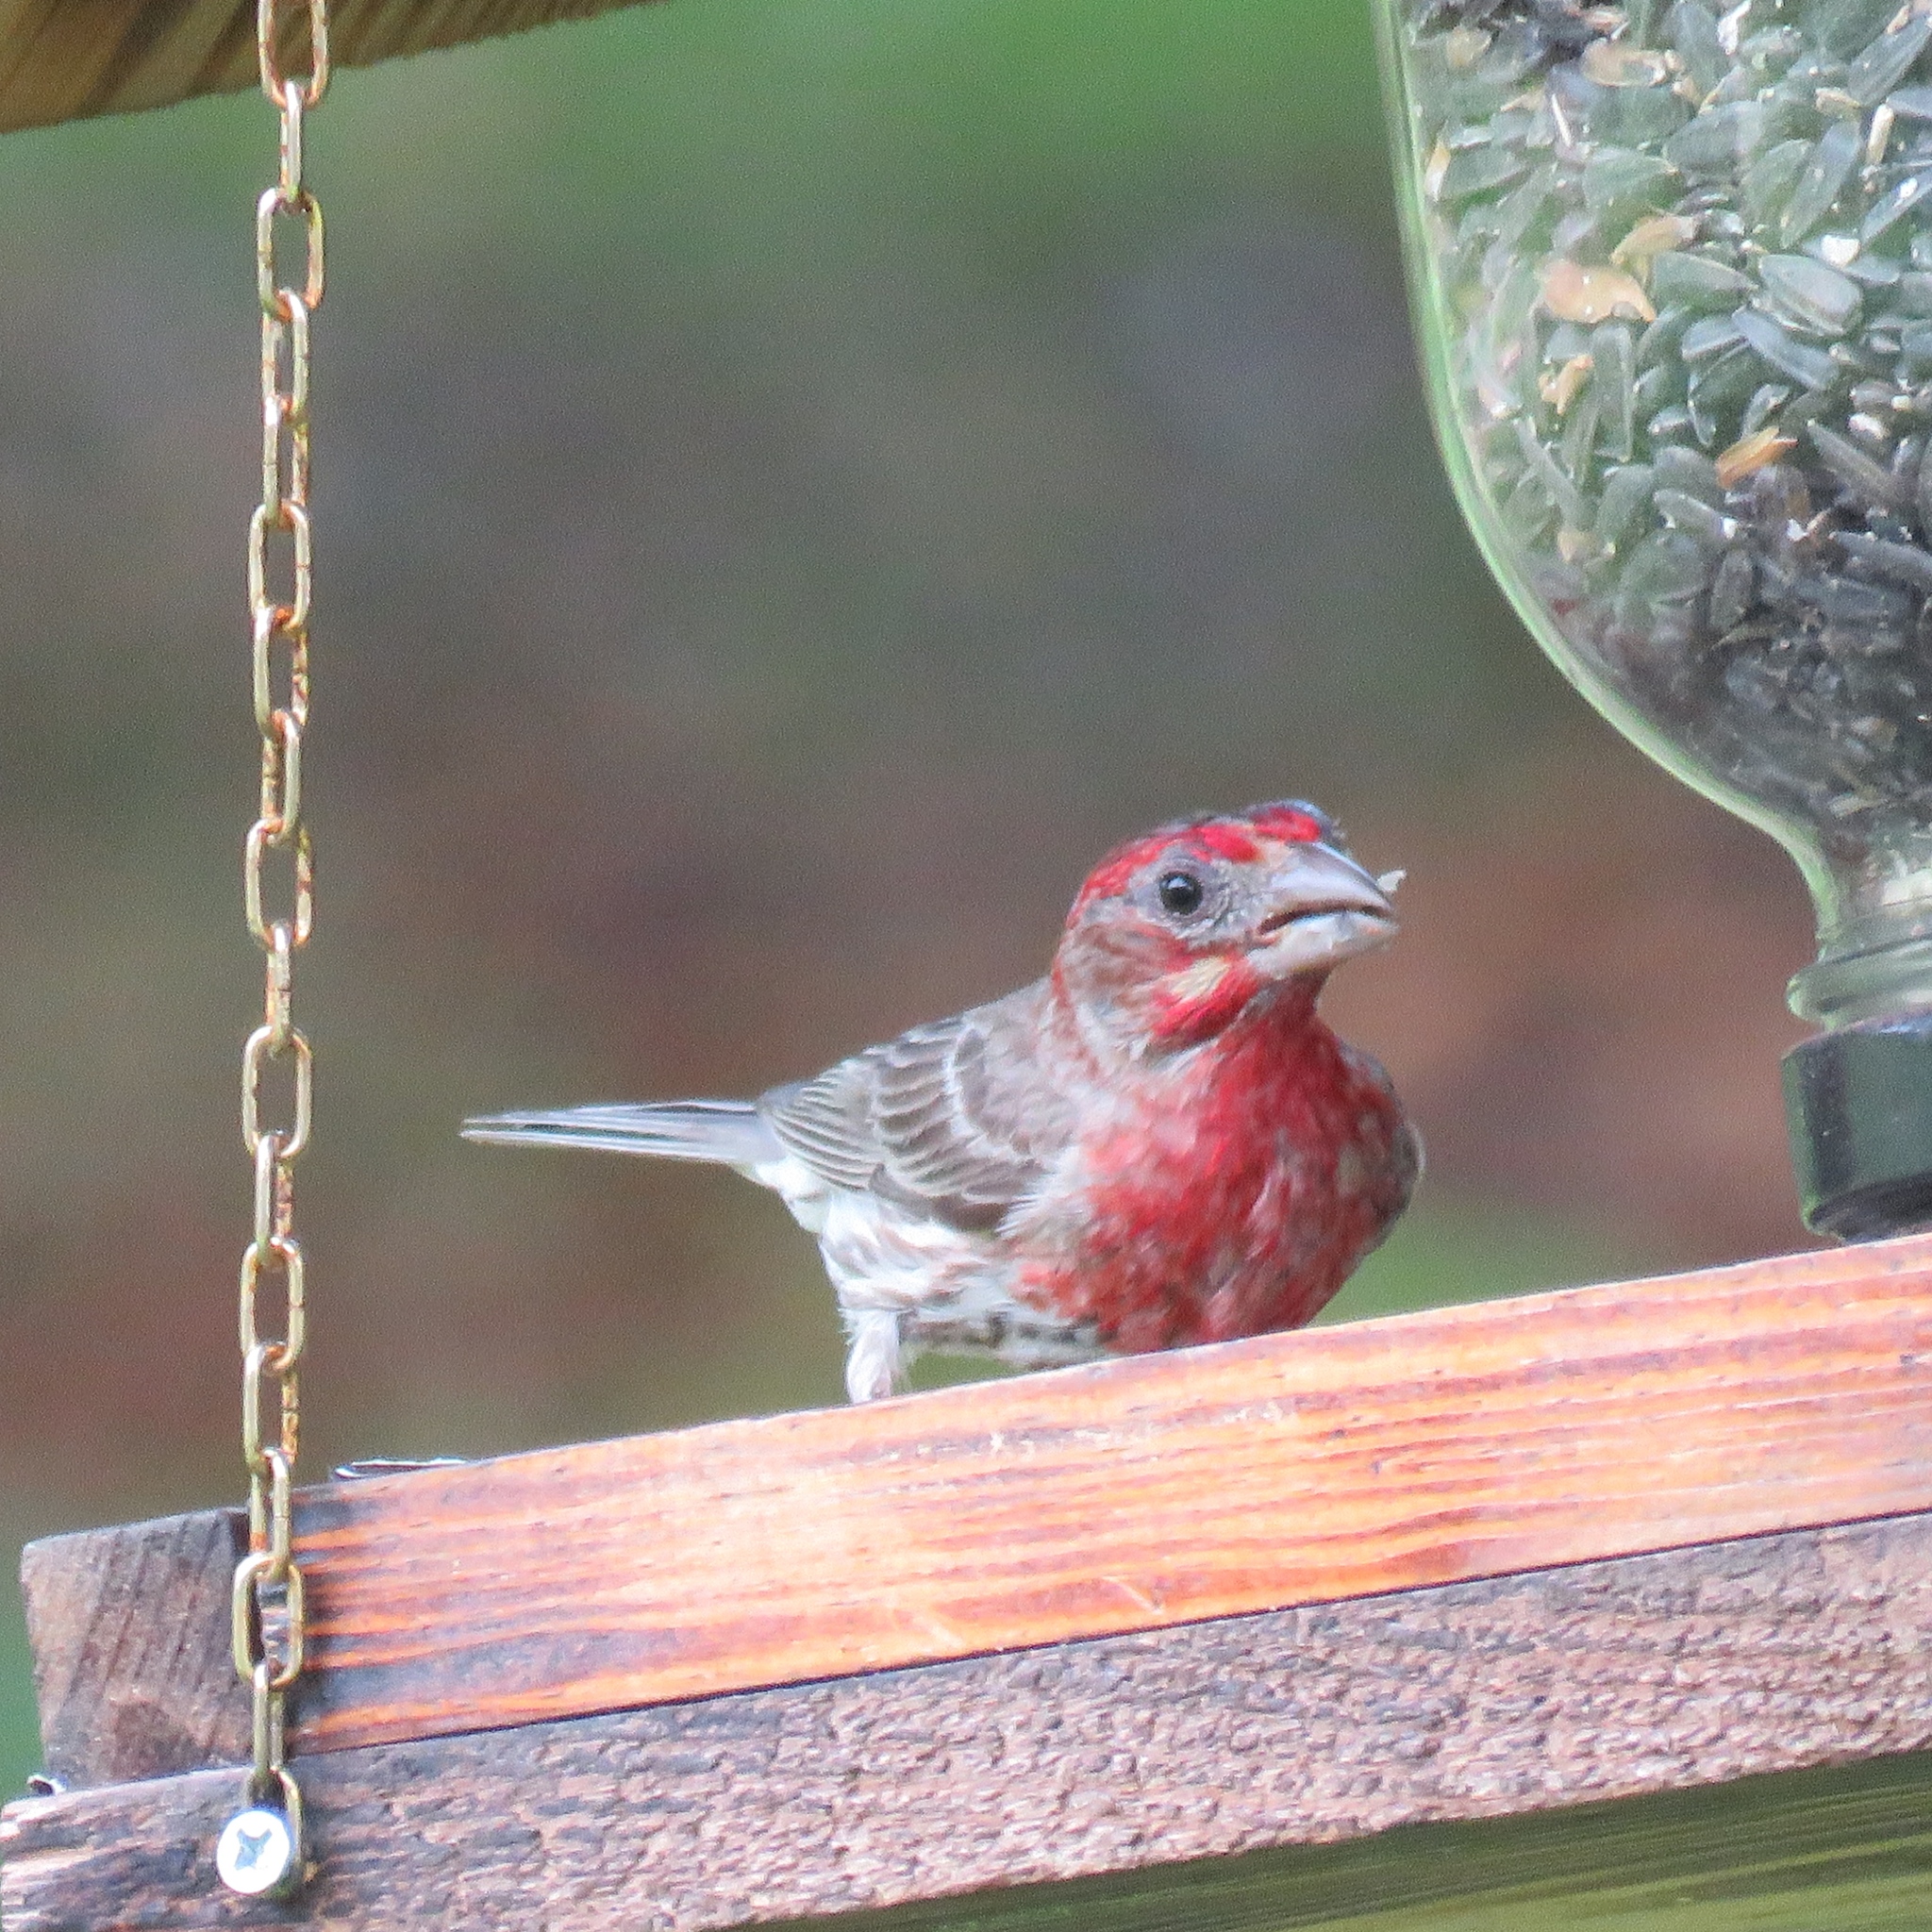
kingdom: Animalia
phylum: Chordata
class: Aves
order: Passeriformes
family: Fringillidae
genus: Haemorhous
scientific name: Haemorhous mexicanus
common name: House finch
